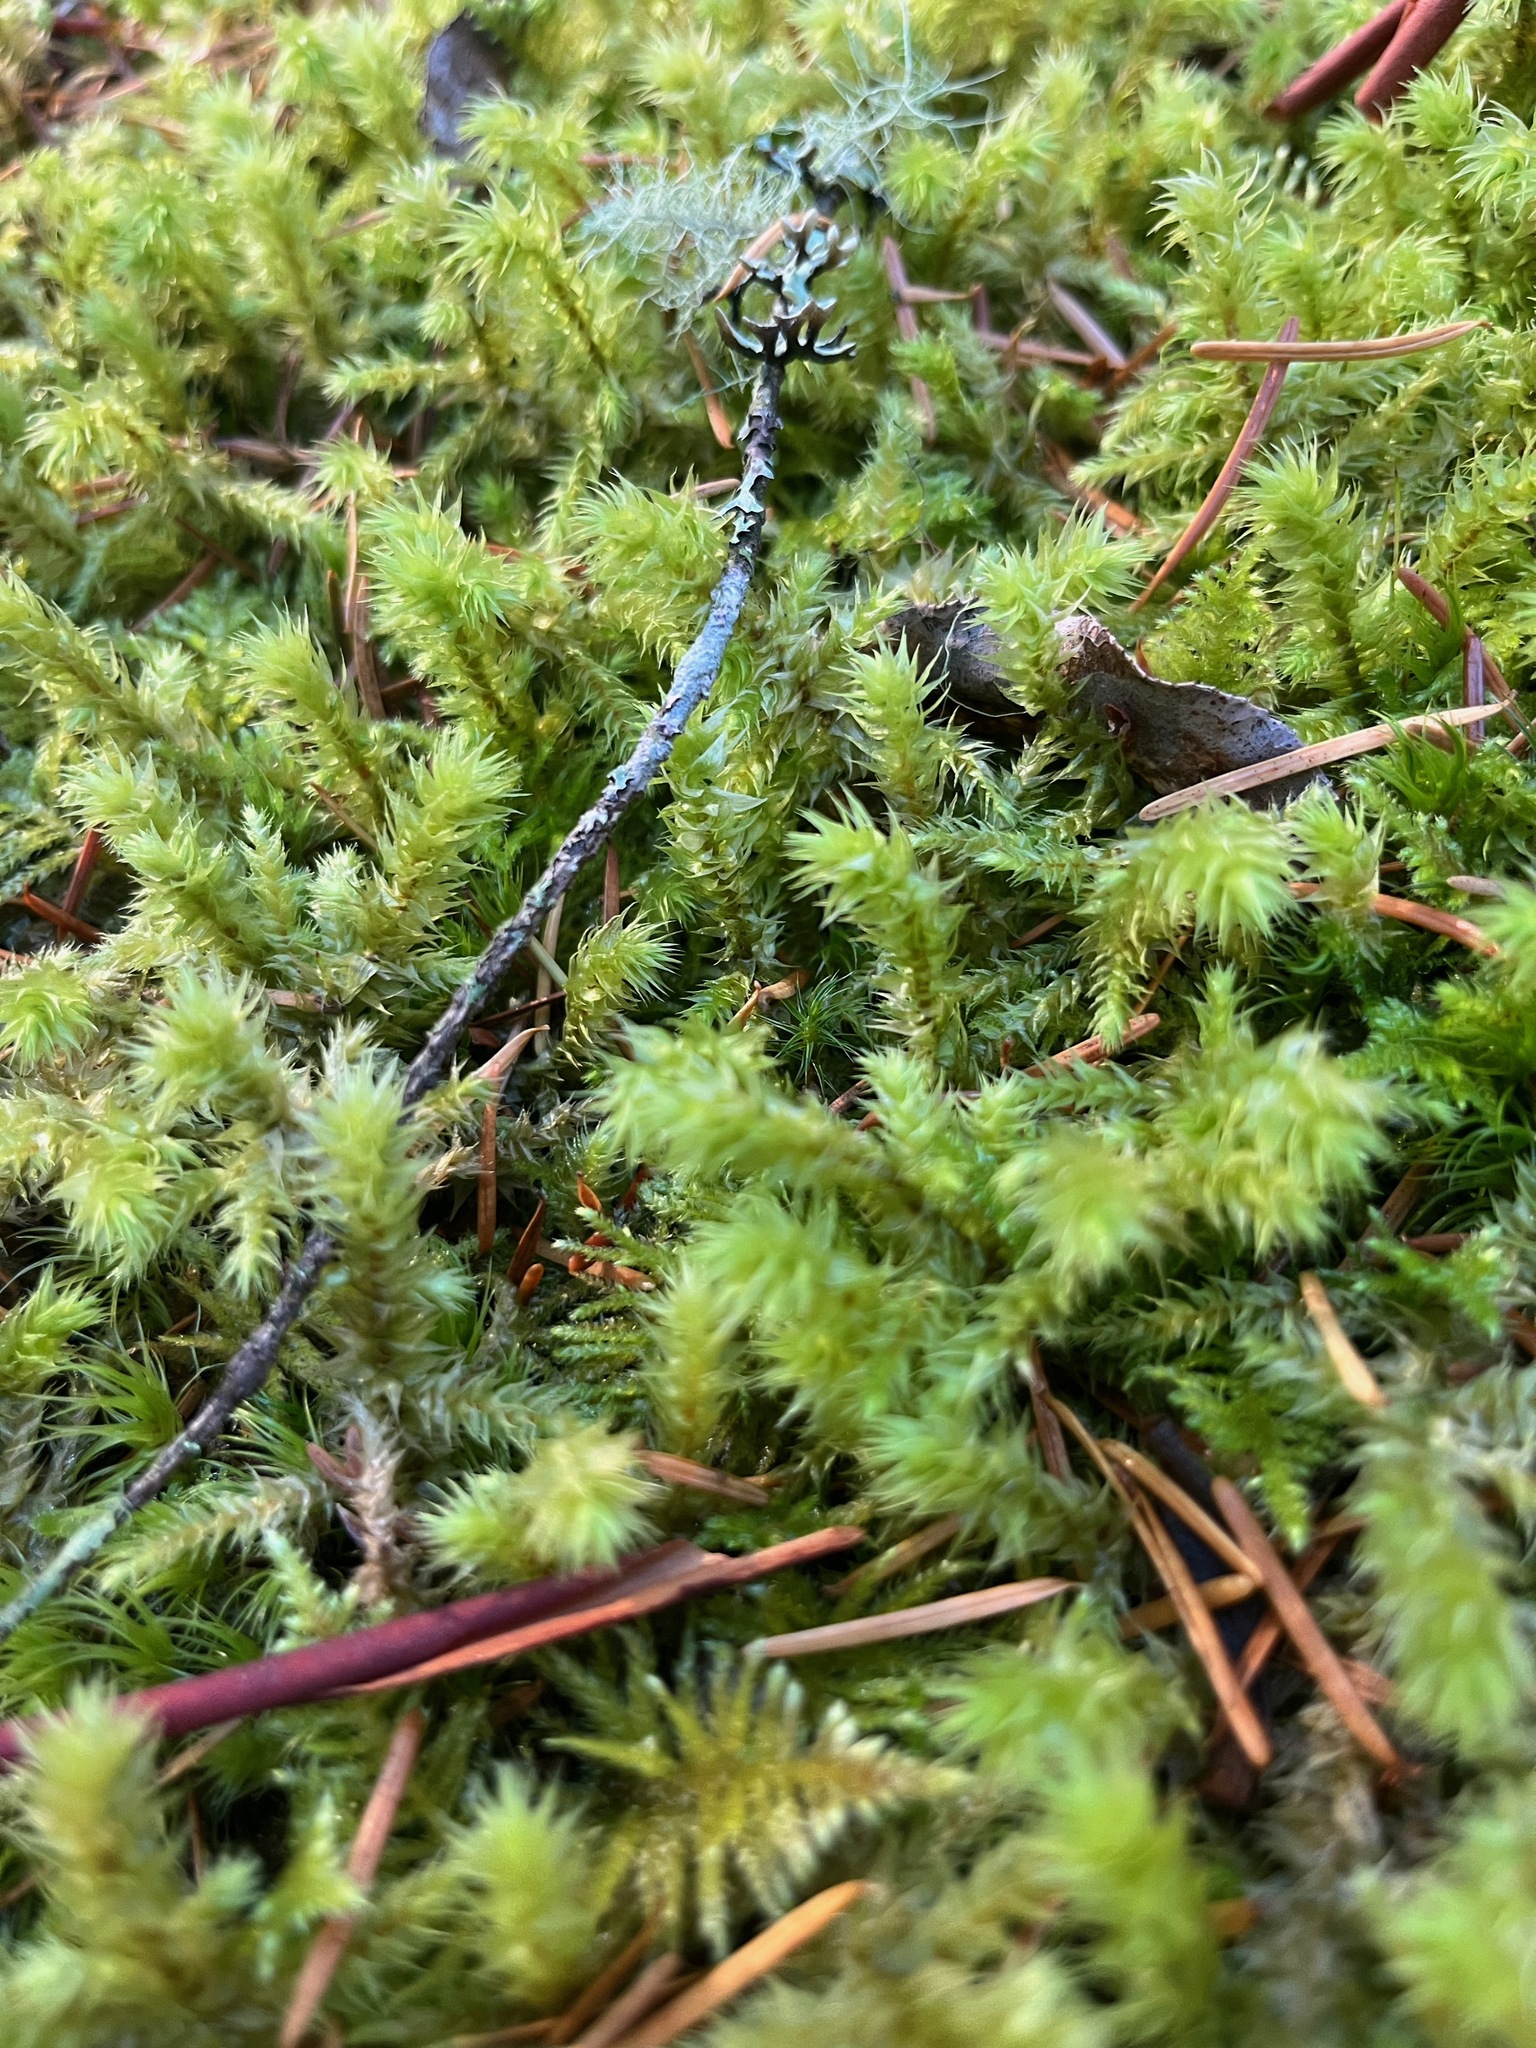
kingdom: Plantae
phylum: Bryophyta
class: Bryopsida
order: Hypnales
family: Hylocomiaceae
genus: Hylocomiadelphus
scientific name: Hylocomiadelphus triquetrus
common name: Rough goose neck moss
